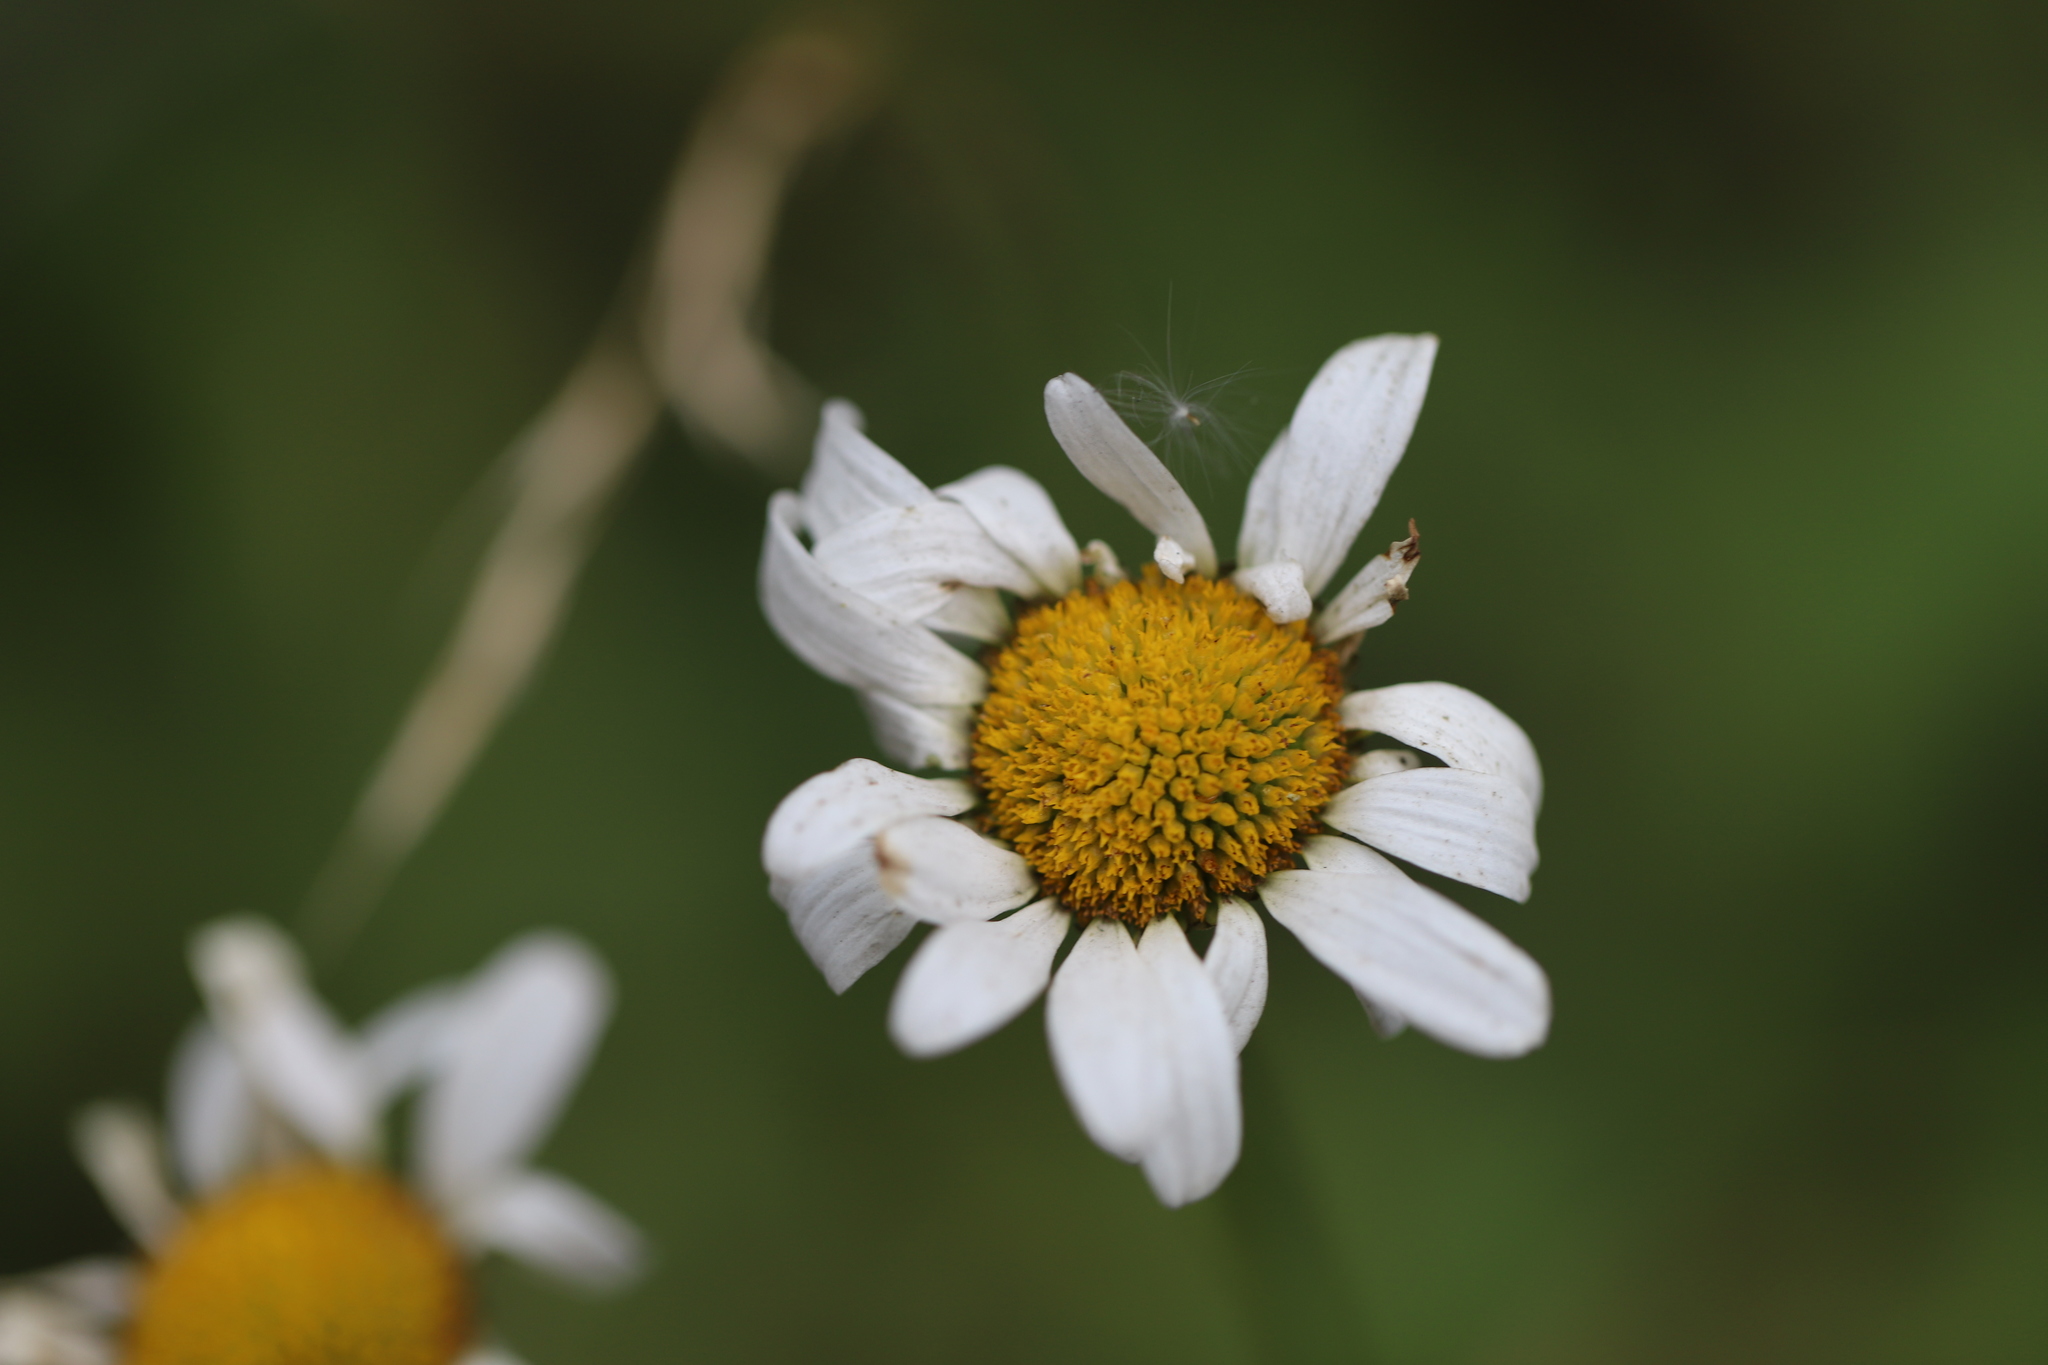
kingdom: Plantae
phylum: Tracheophyta
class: Magnoliopsida
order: Asterales
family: Asteraceae
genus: Leucanthemum
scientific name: Leucanthemum vulgare
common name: Oxeye daisy
